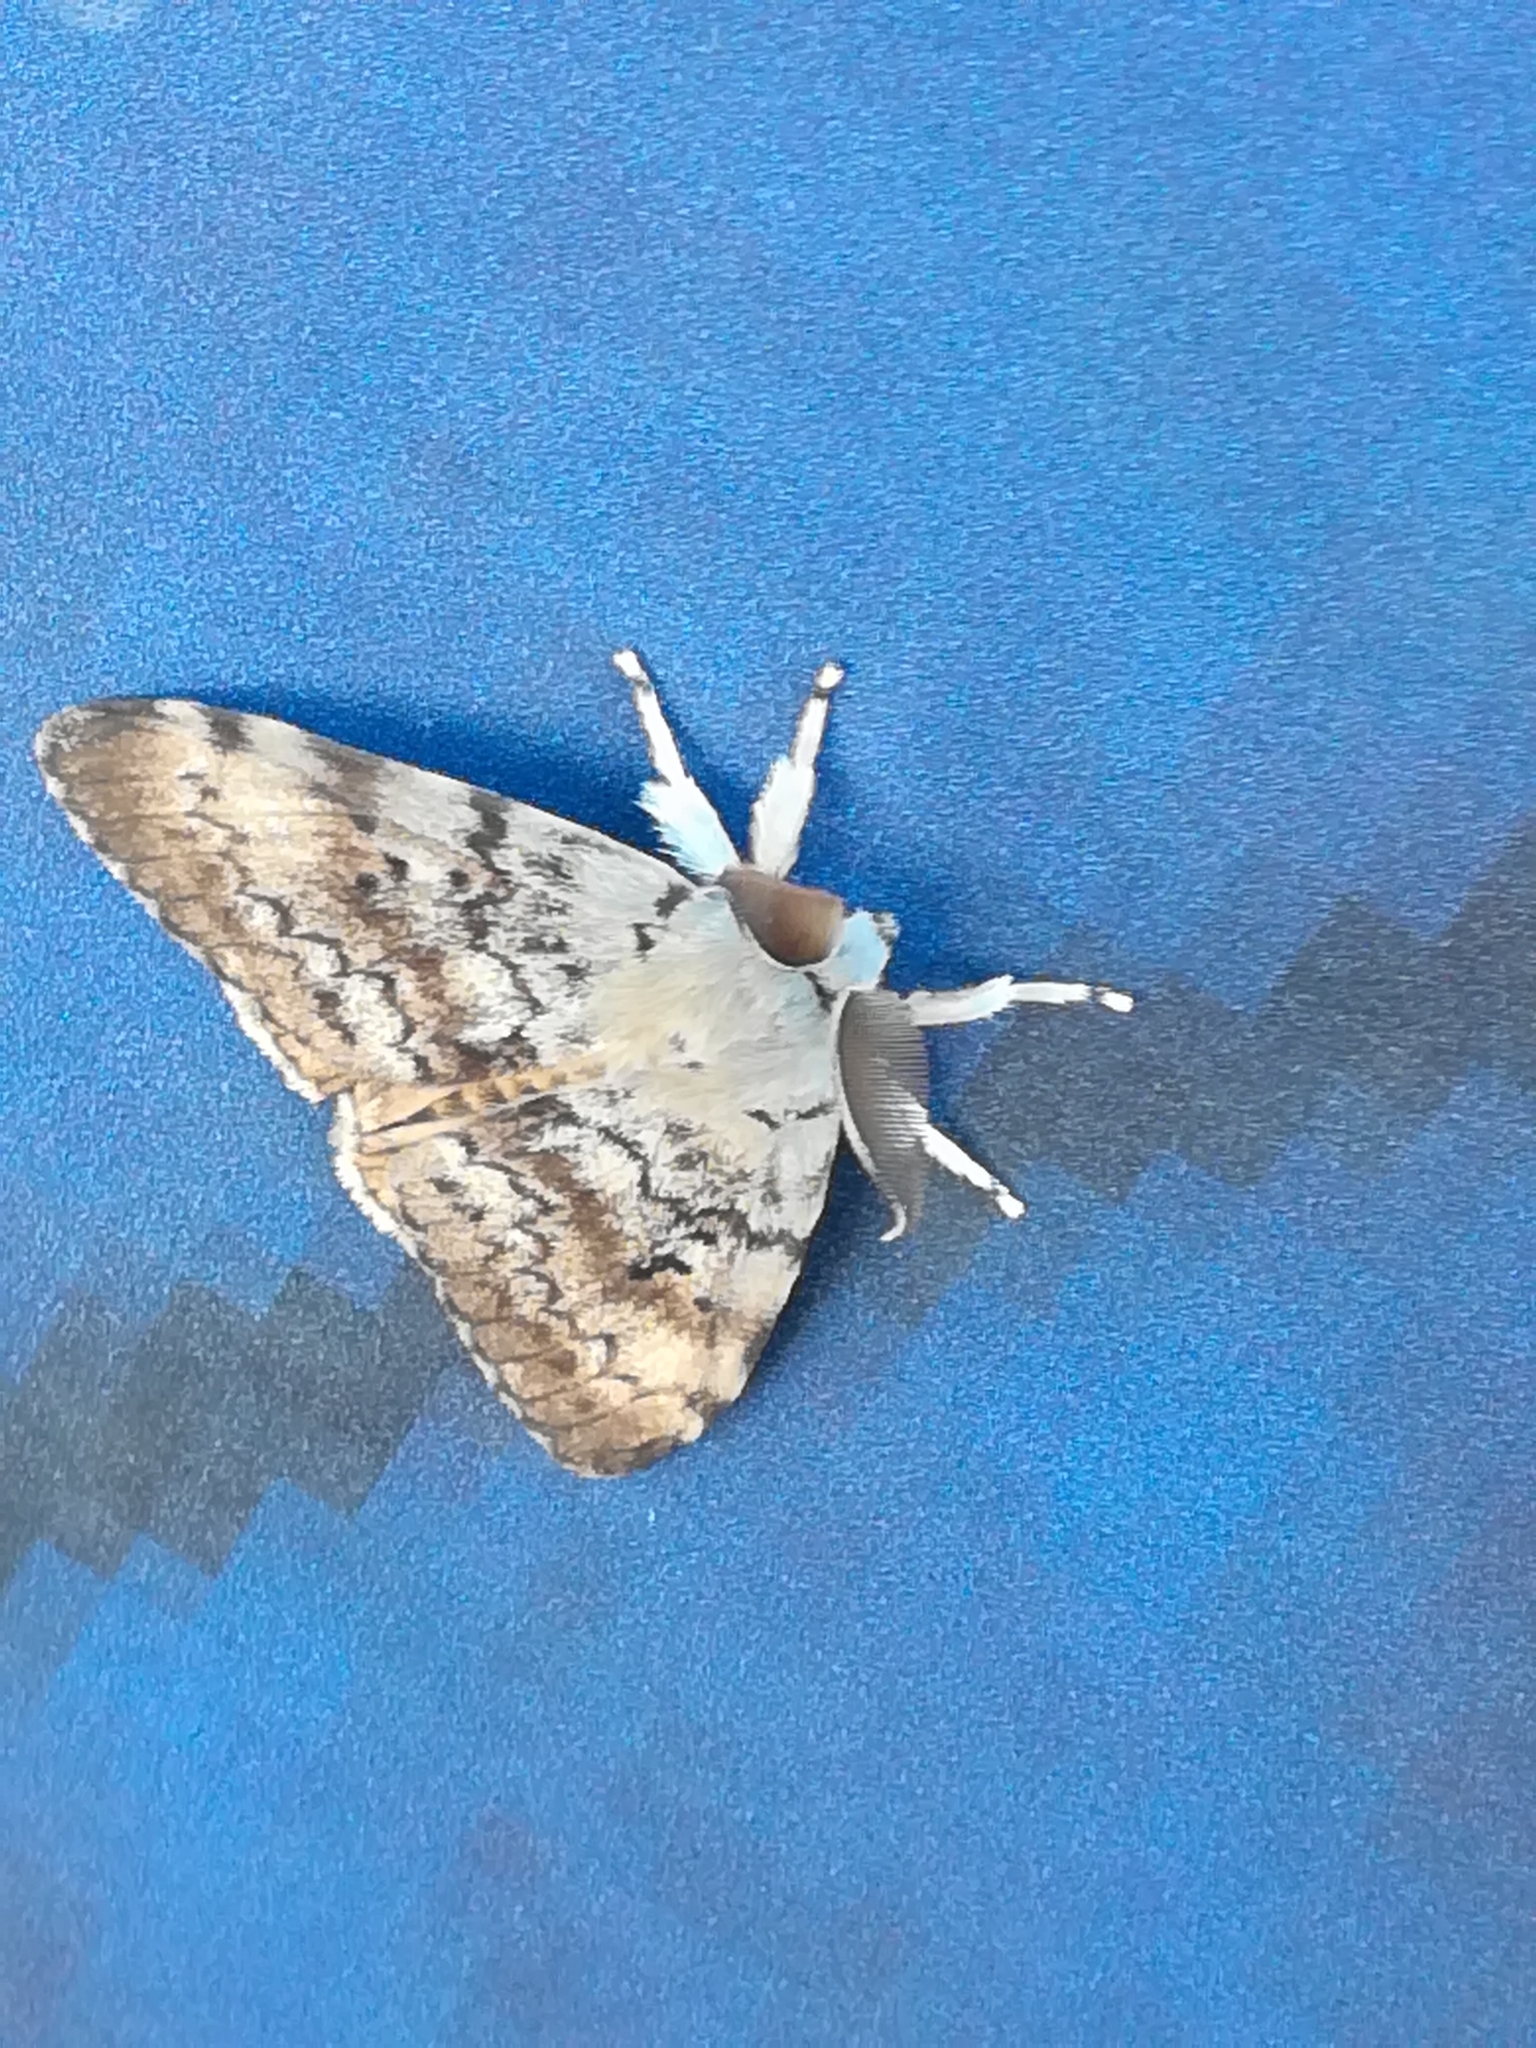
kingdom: Animalia
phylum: Arthropoda
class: Insecta
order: Lepidoptera
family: Erebidae
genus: Lymantria
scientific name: Lymantria dispar
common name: Gypsy moth
